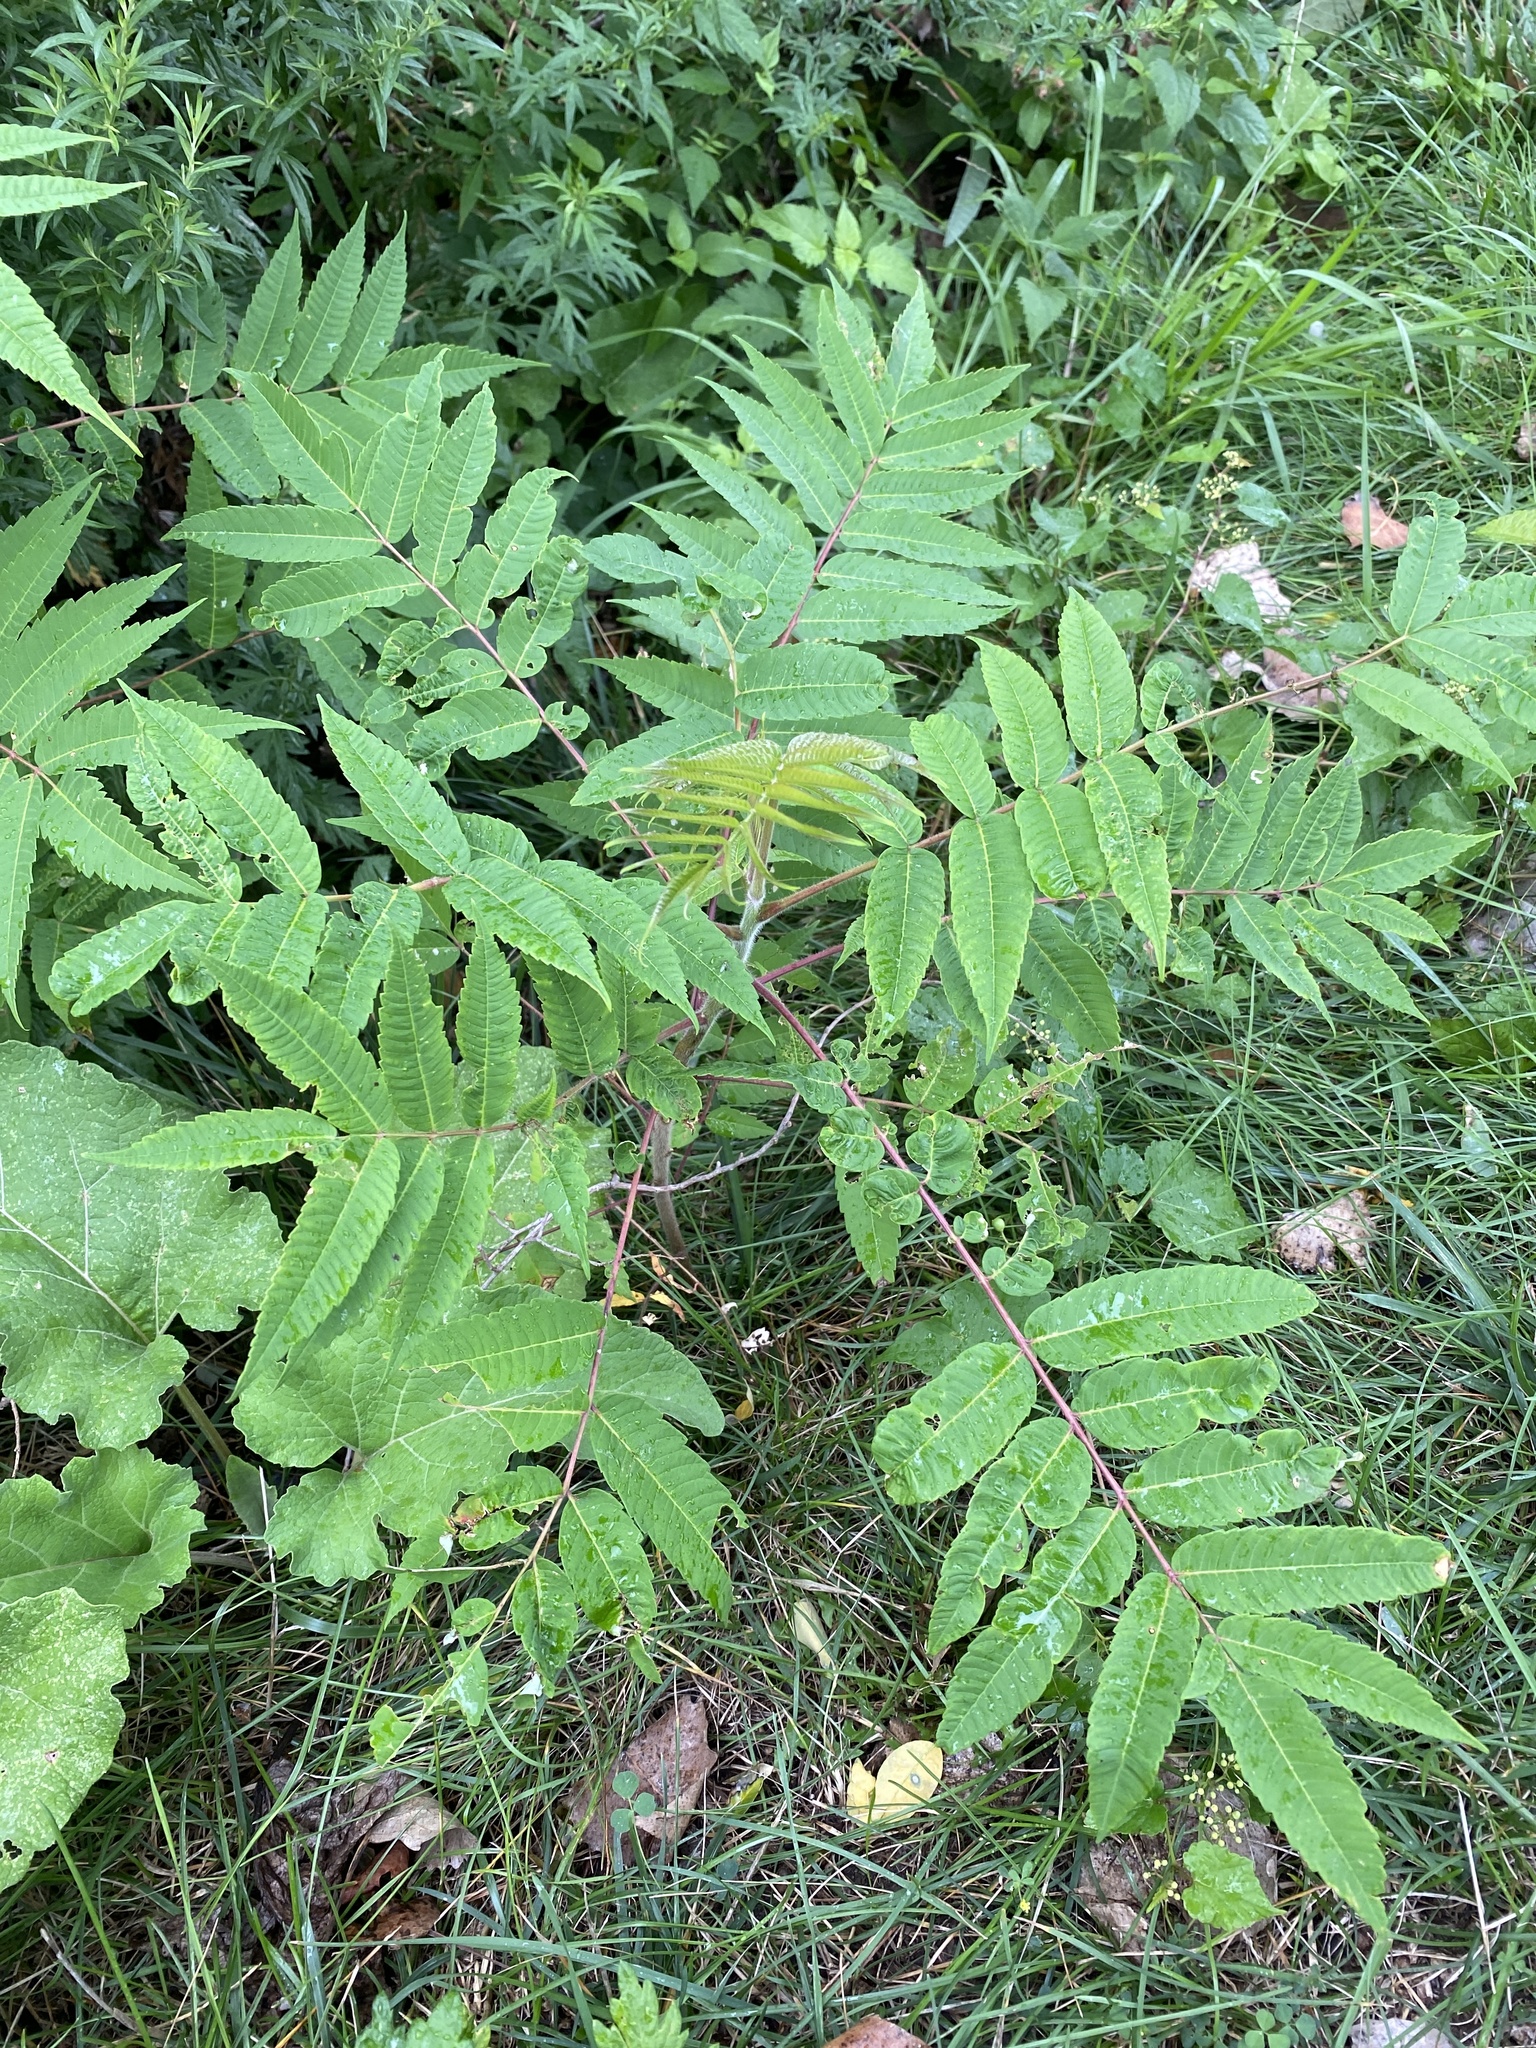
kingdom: Plantae
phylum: Tracheophyta
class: Magnoliopsida
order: Sapindales
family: Anacardiaceae
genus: Rhus
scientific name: Rhus typhina
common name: Staghorn sumac
